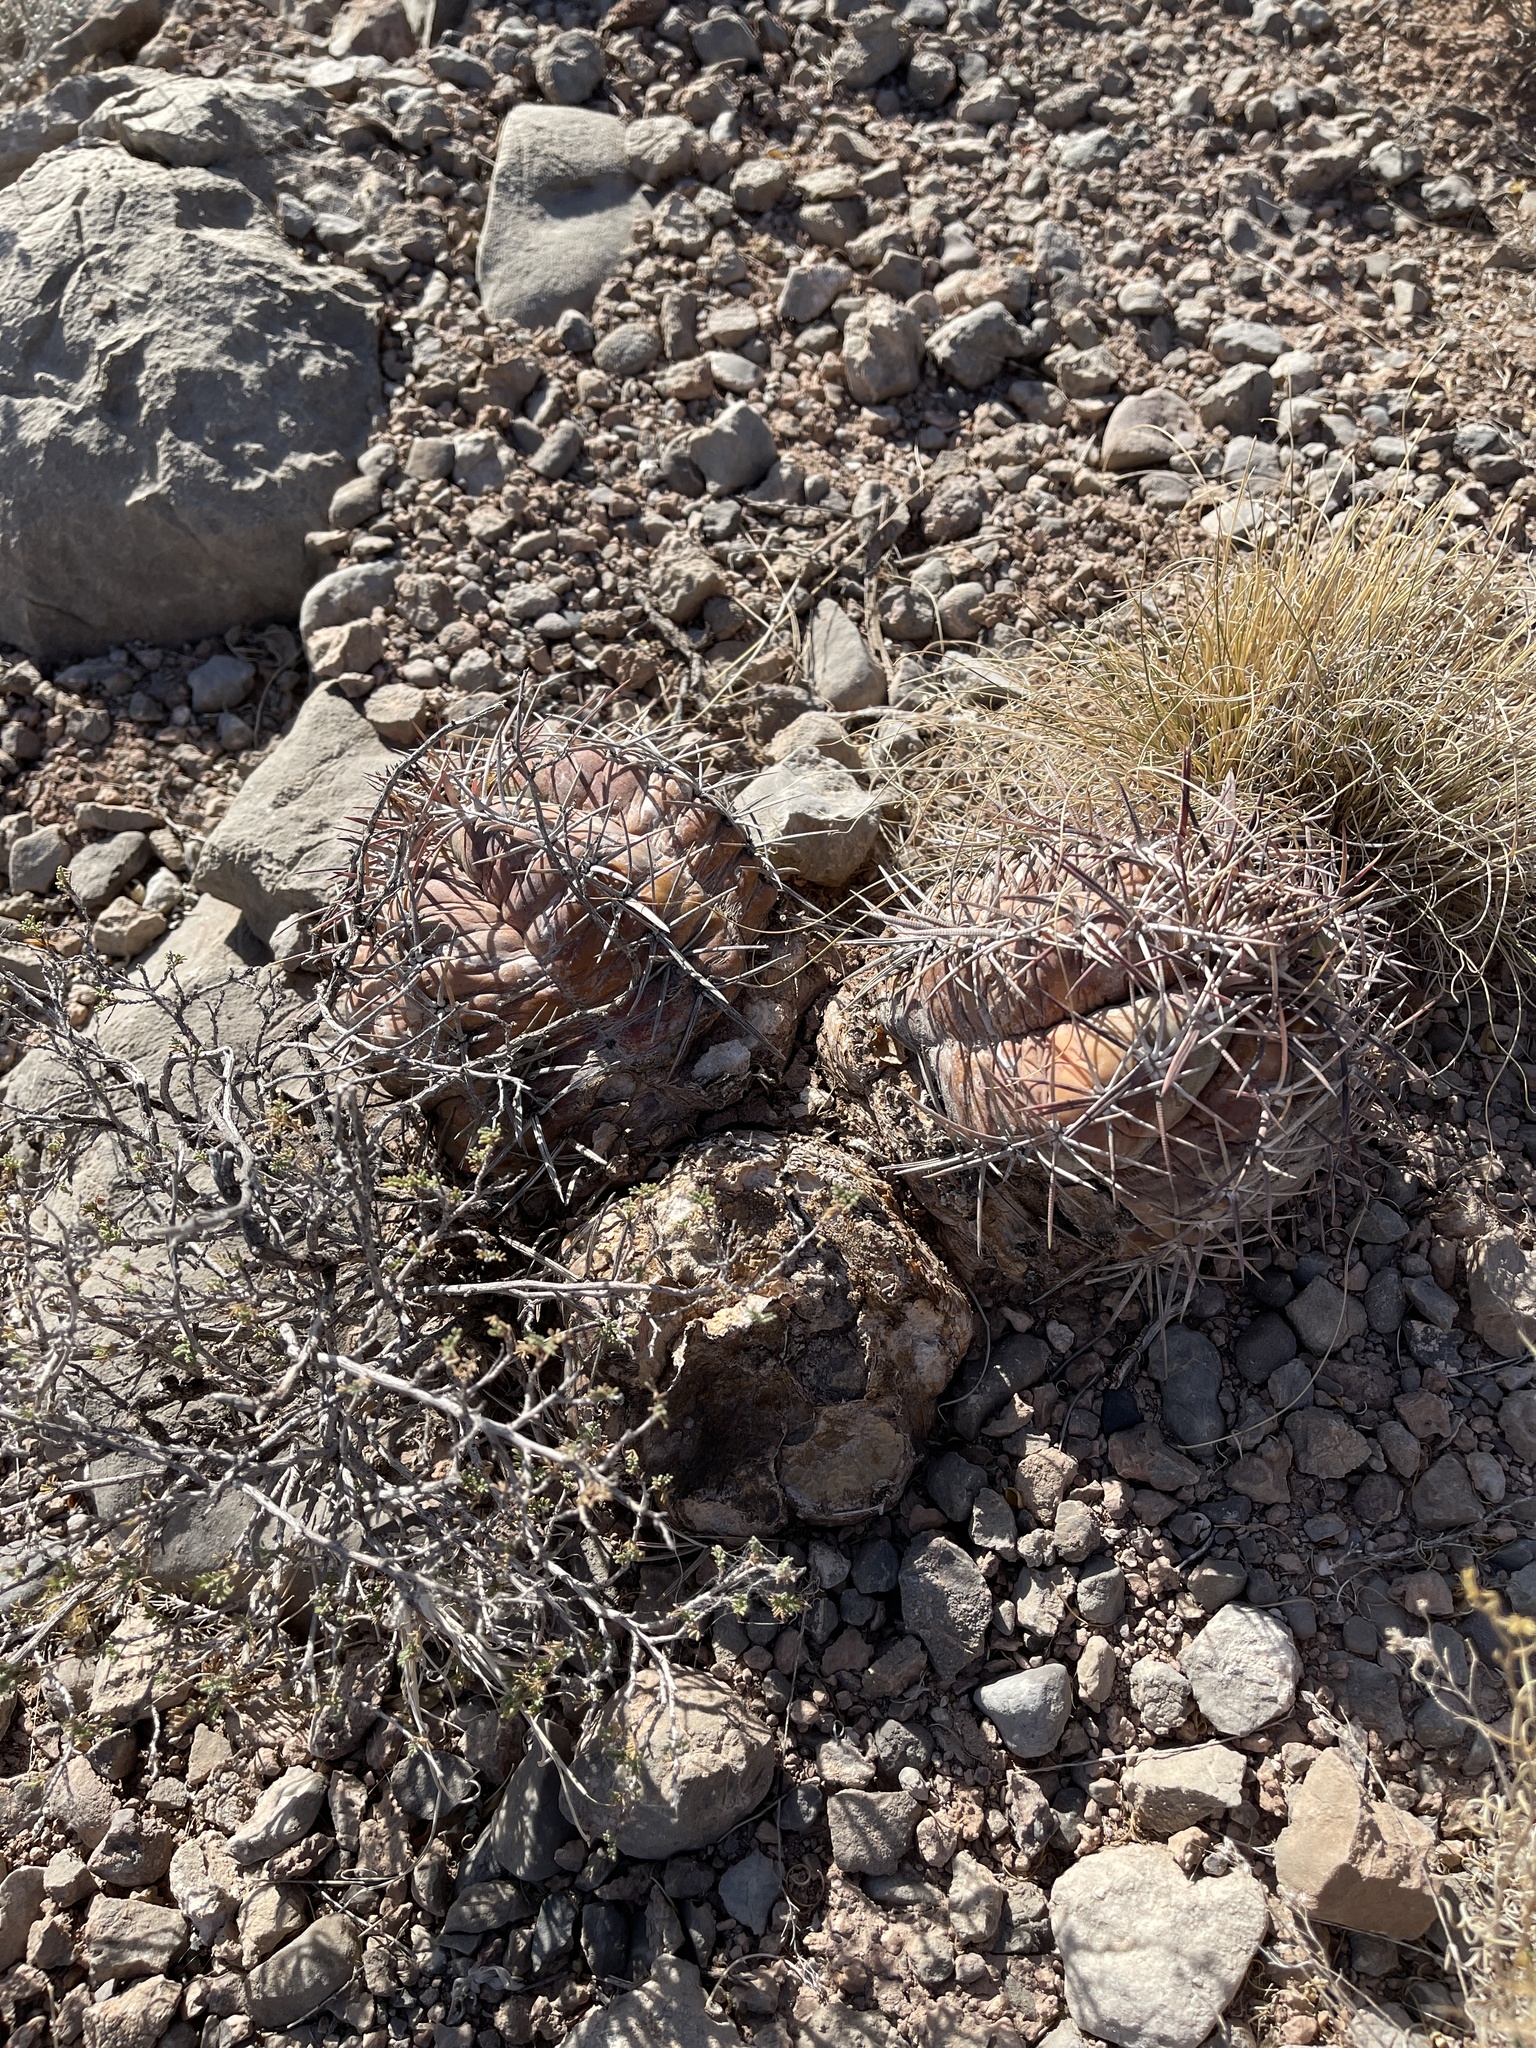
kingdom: Plantae
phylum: Tracheophyta
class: Magnoliopsida
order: Caryophyllales
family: Cactaceae
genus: Echinocactus
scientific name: Echinocactus horizonthalonius
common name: Devilshead
